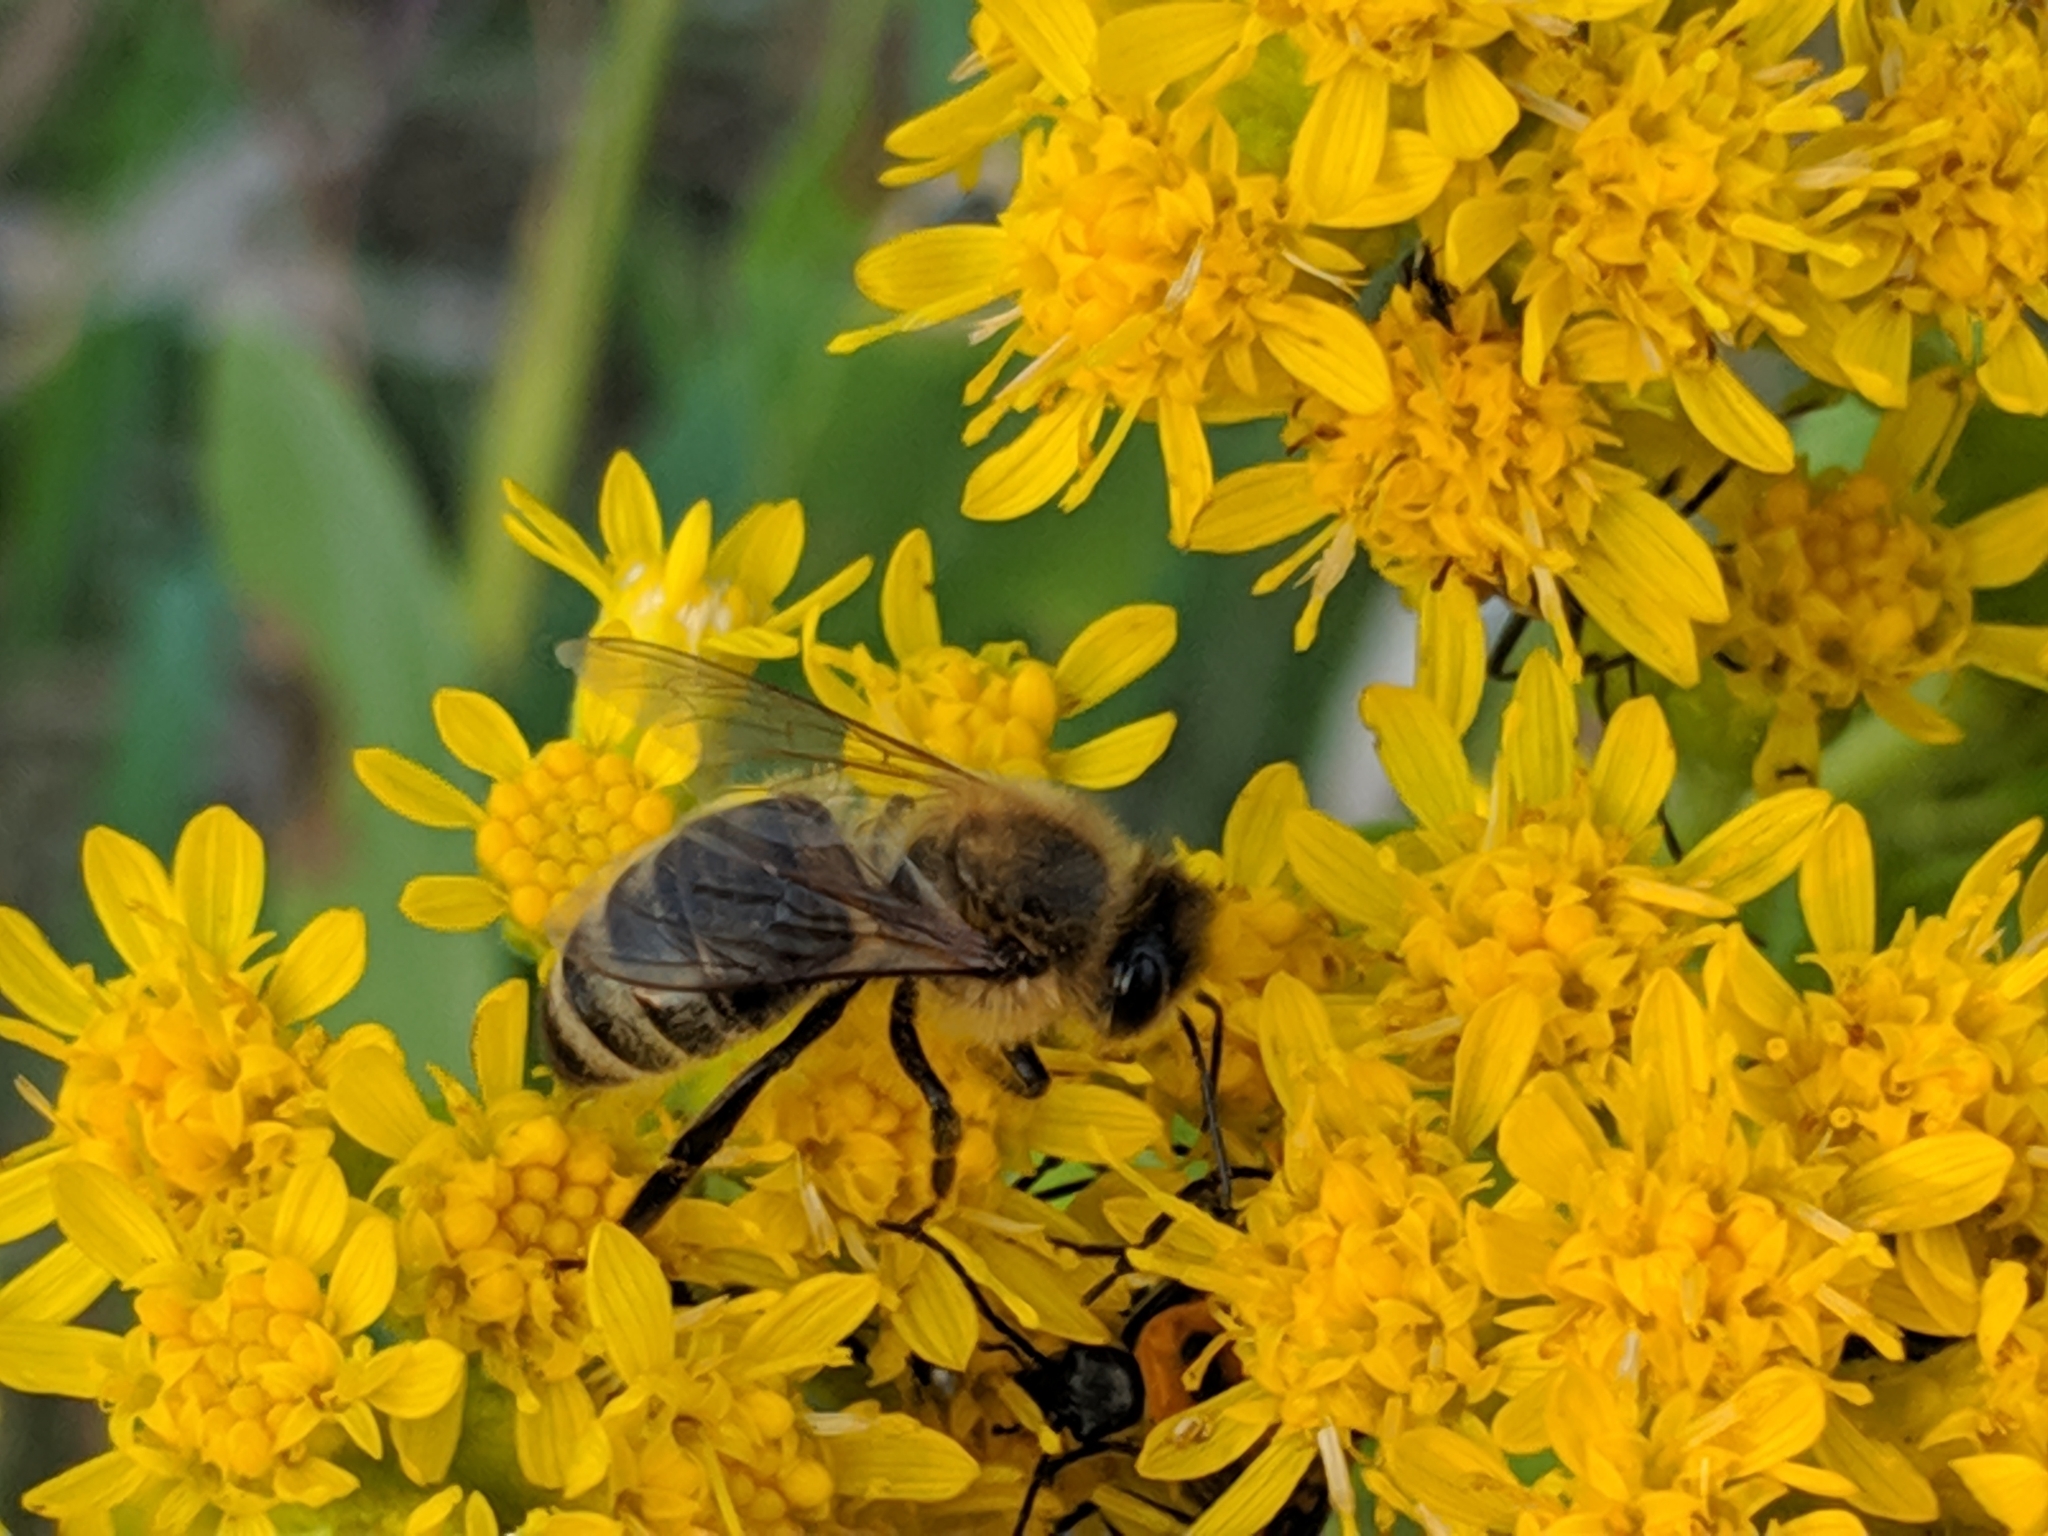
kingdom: Animalia
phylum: Arthropoda
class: Insecta
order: Hymenoptera
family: Apidae
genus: Apis
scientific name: Apis mellifera
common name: Honey bee
